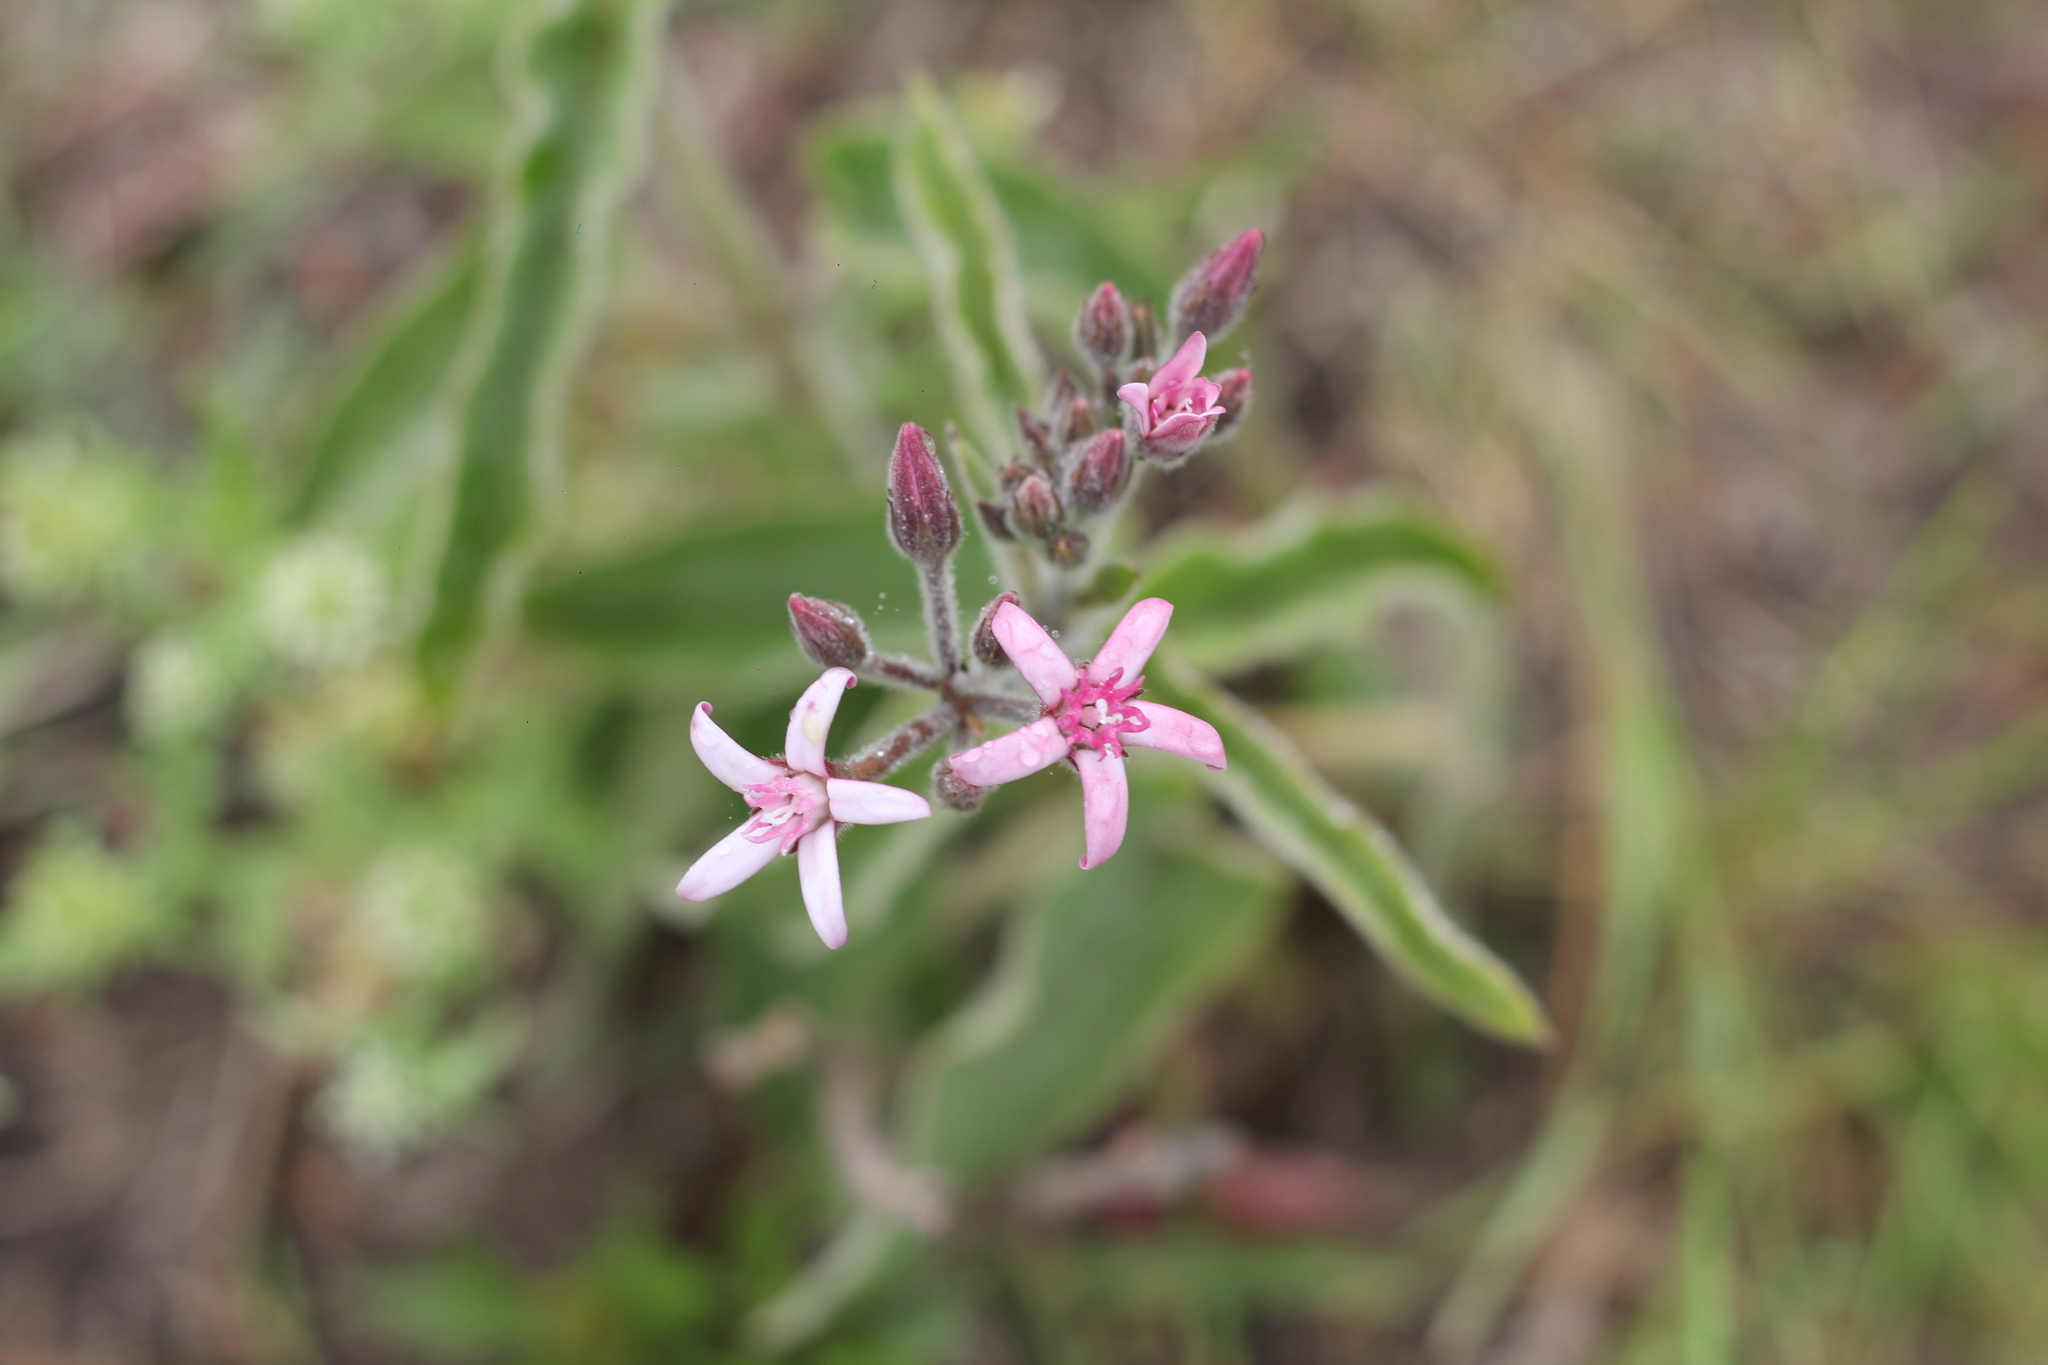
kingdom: Plantae
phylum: Tracheophyta
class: Magnoliopsida
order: Gentianales
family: Apocynaceae
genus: Oxypetalum
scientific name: Oxypetalum solanoides
